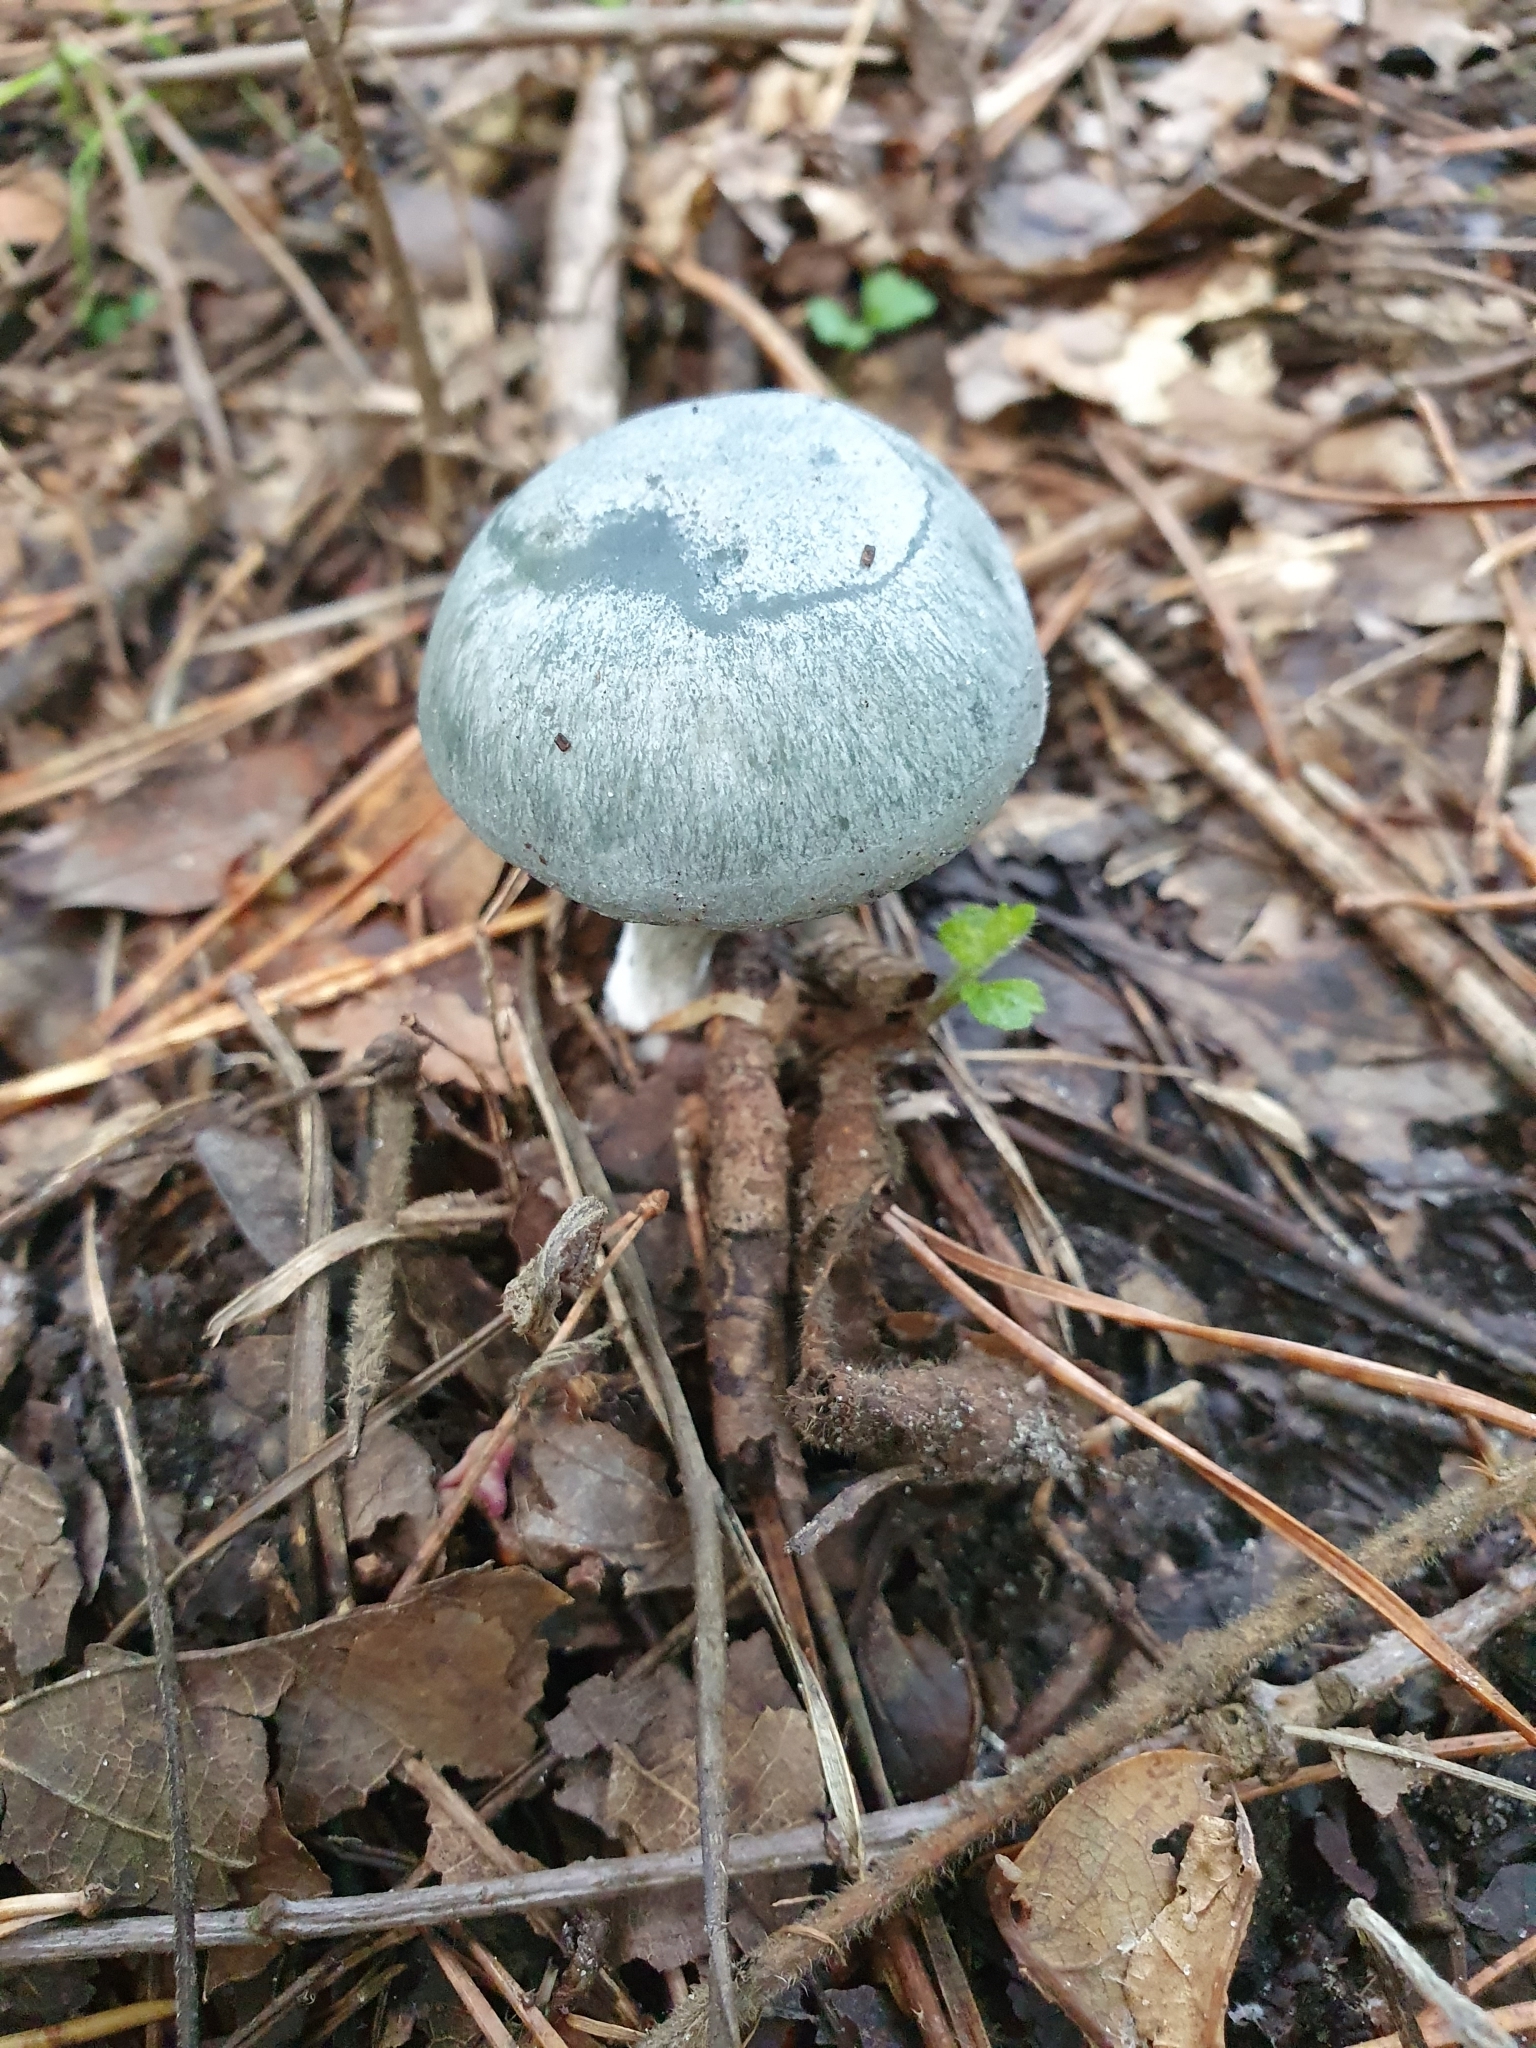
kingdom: Fungi
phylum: Basidiomycota
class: Agaricomycetes
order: Agaricales
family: Tricholomataceae
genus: Collybia
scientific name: Collybia
